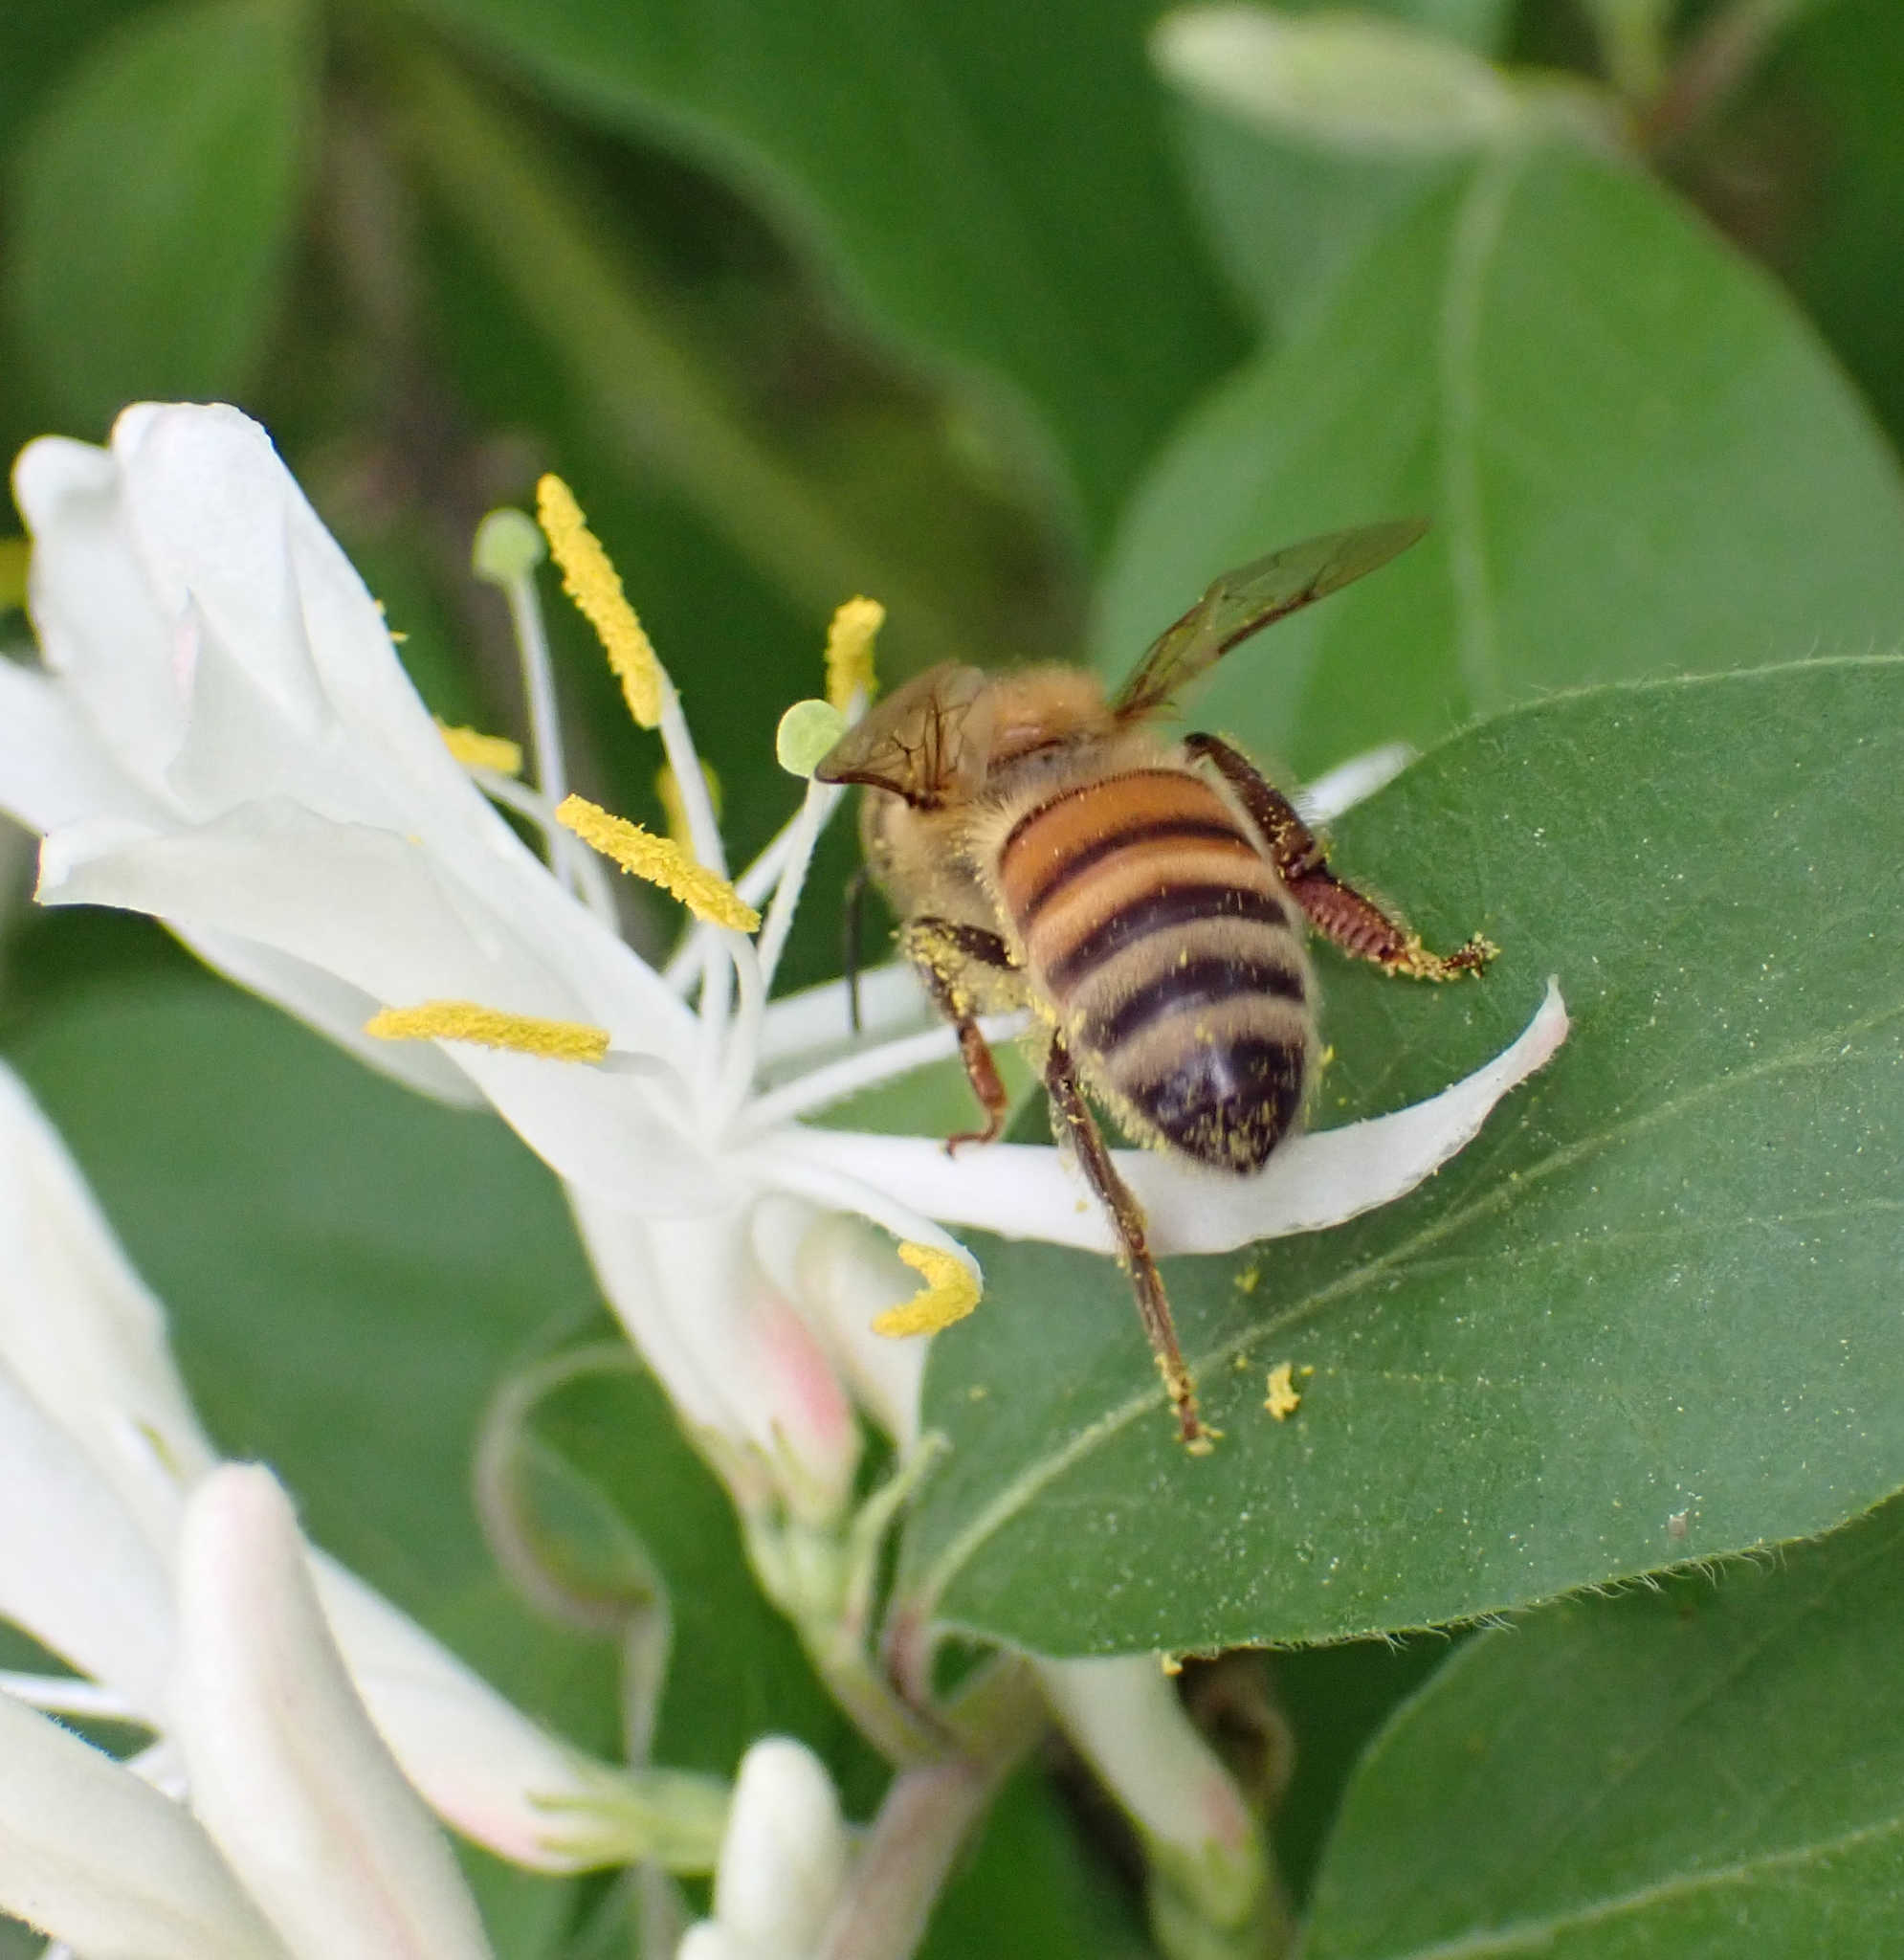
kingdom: Animalia
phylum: Arthropoda
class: Insecta
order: Hymenoptera
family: Apidae
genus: Apis
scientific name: Apis mellifera
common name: Honey bee
